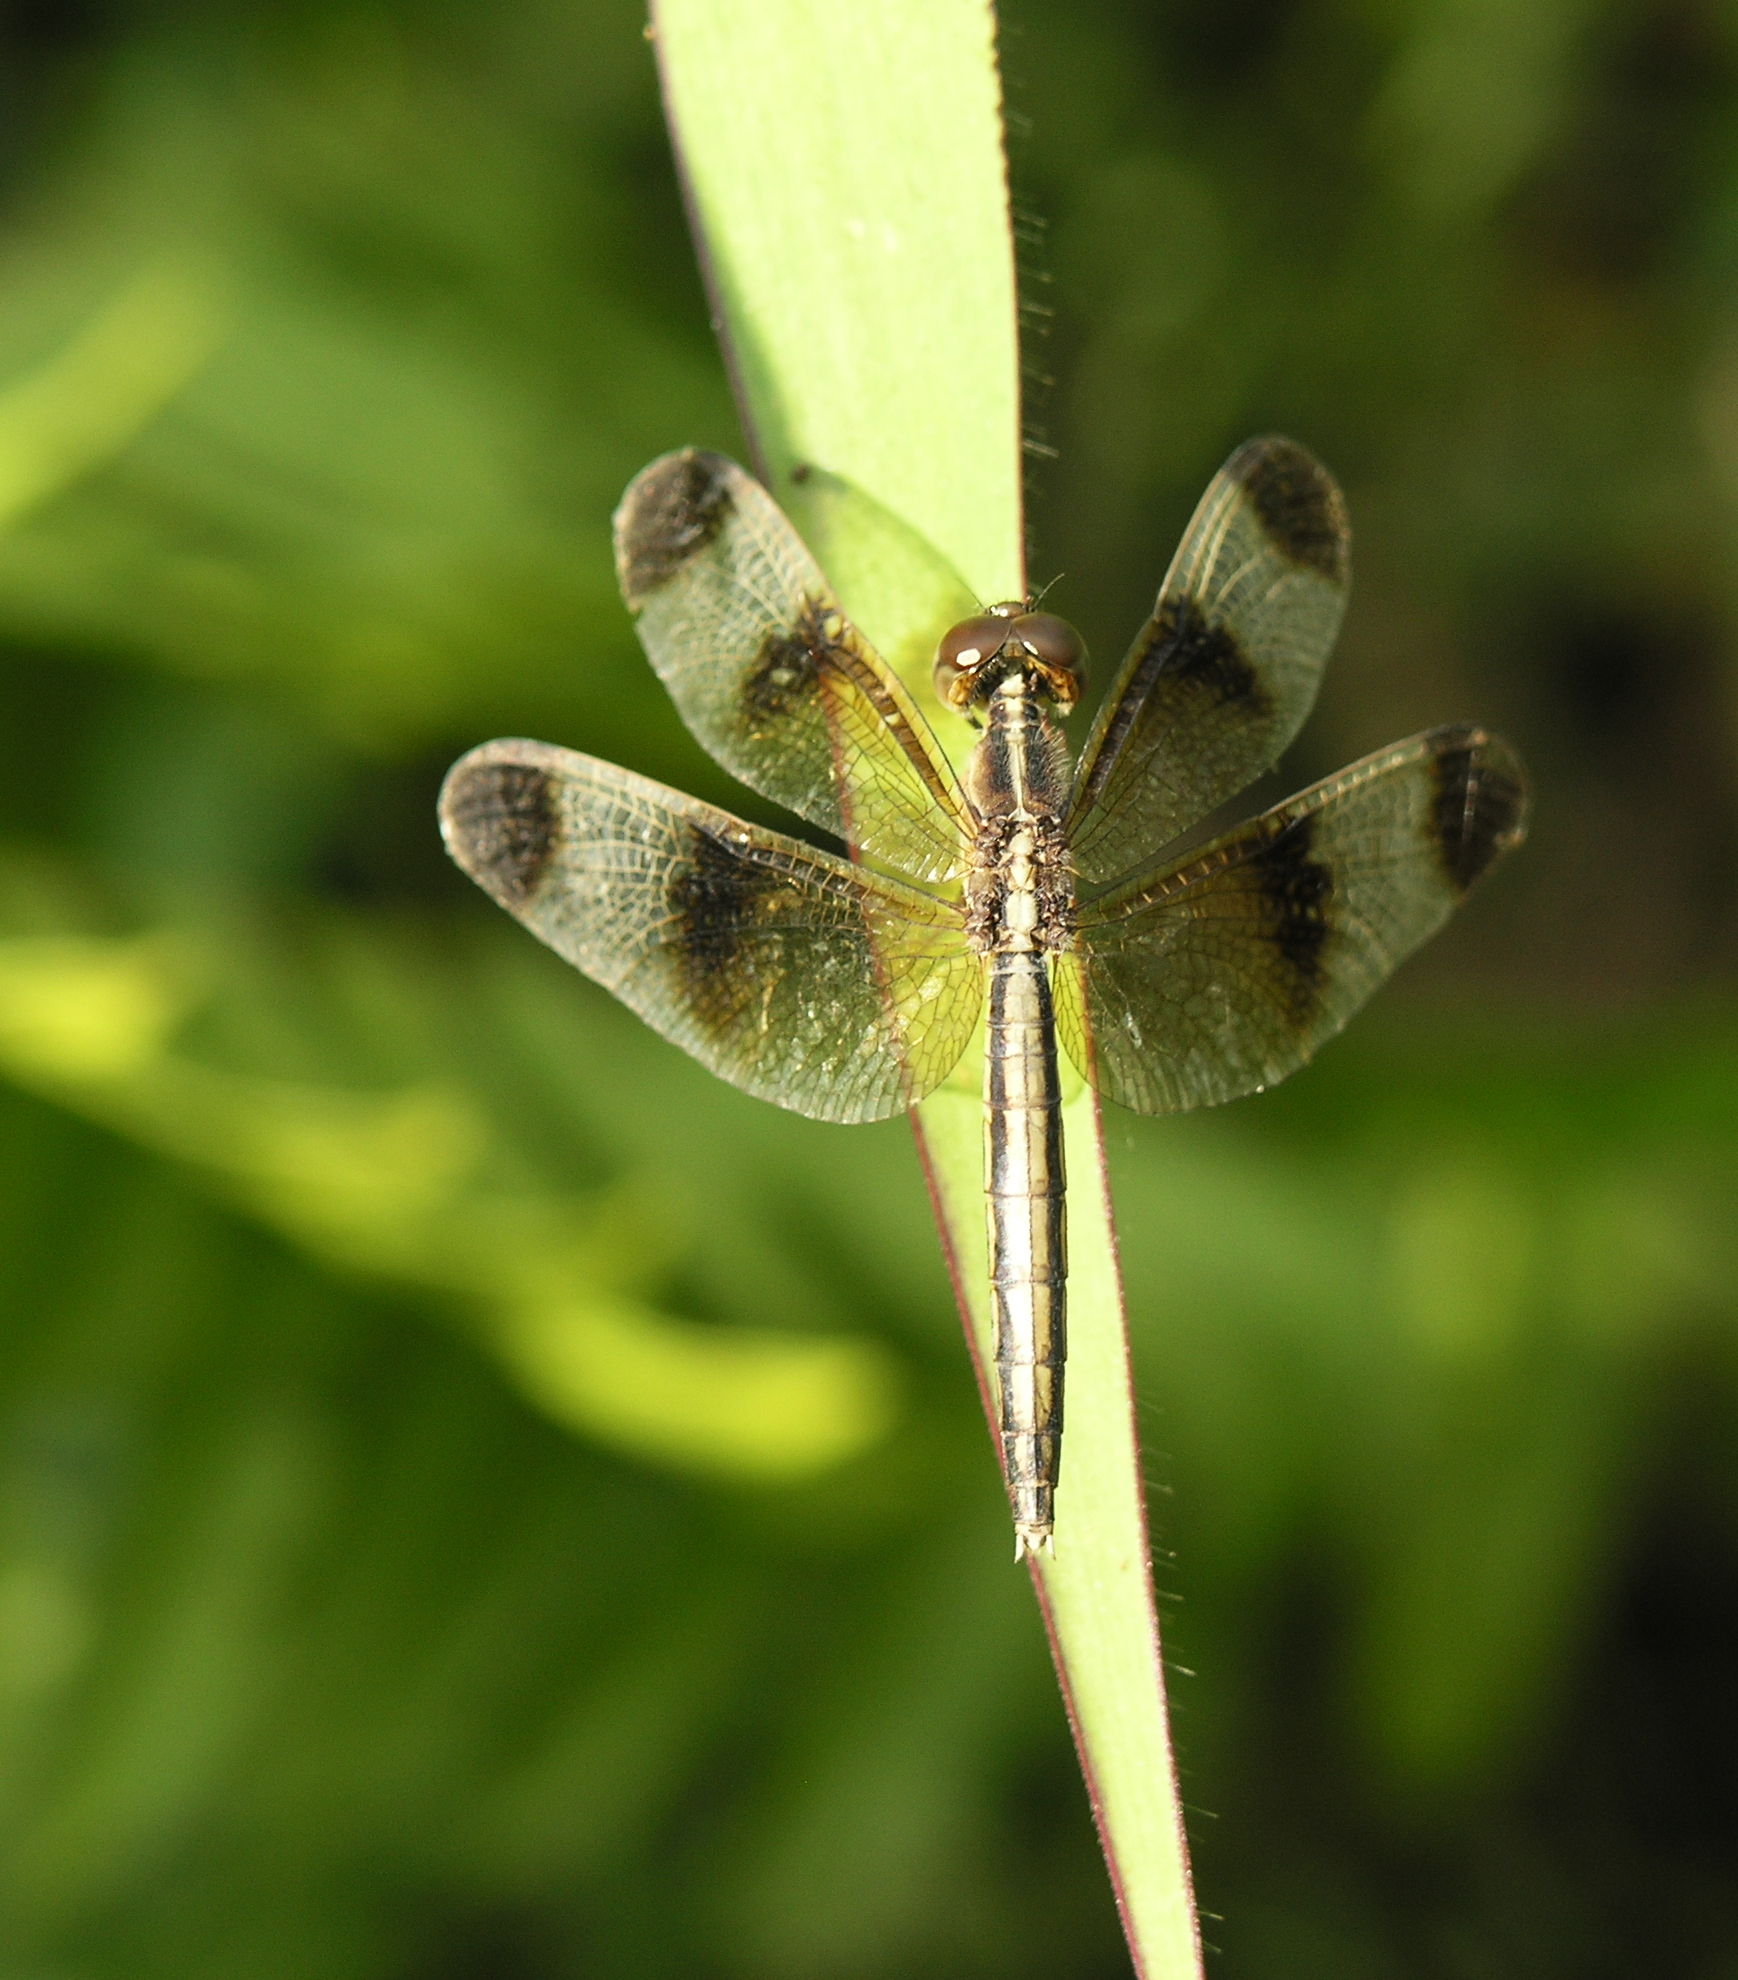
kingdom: Animalia
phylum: Arthropoda
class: Insecta
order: Odonata
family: Libellulidae
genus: Neurothemis
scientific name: Neurothemis tullia
